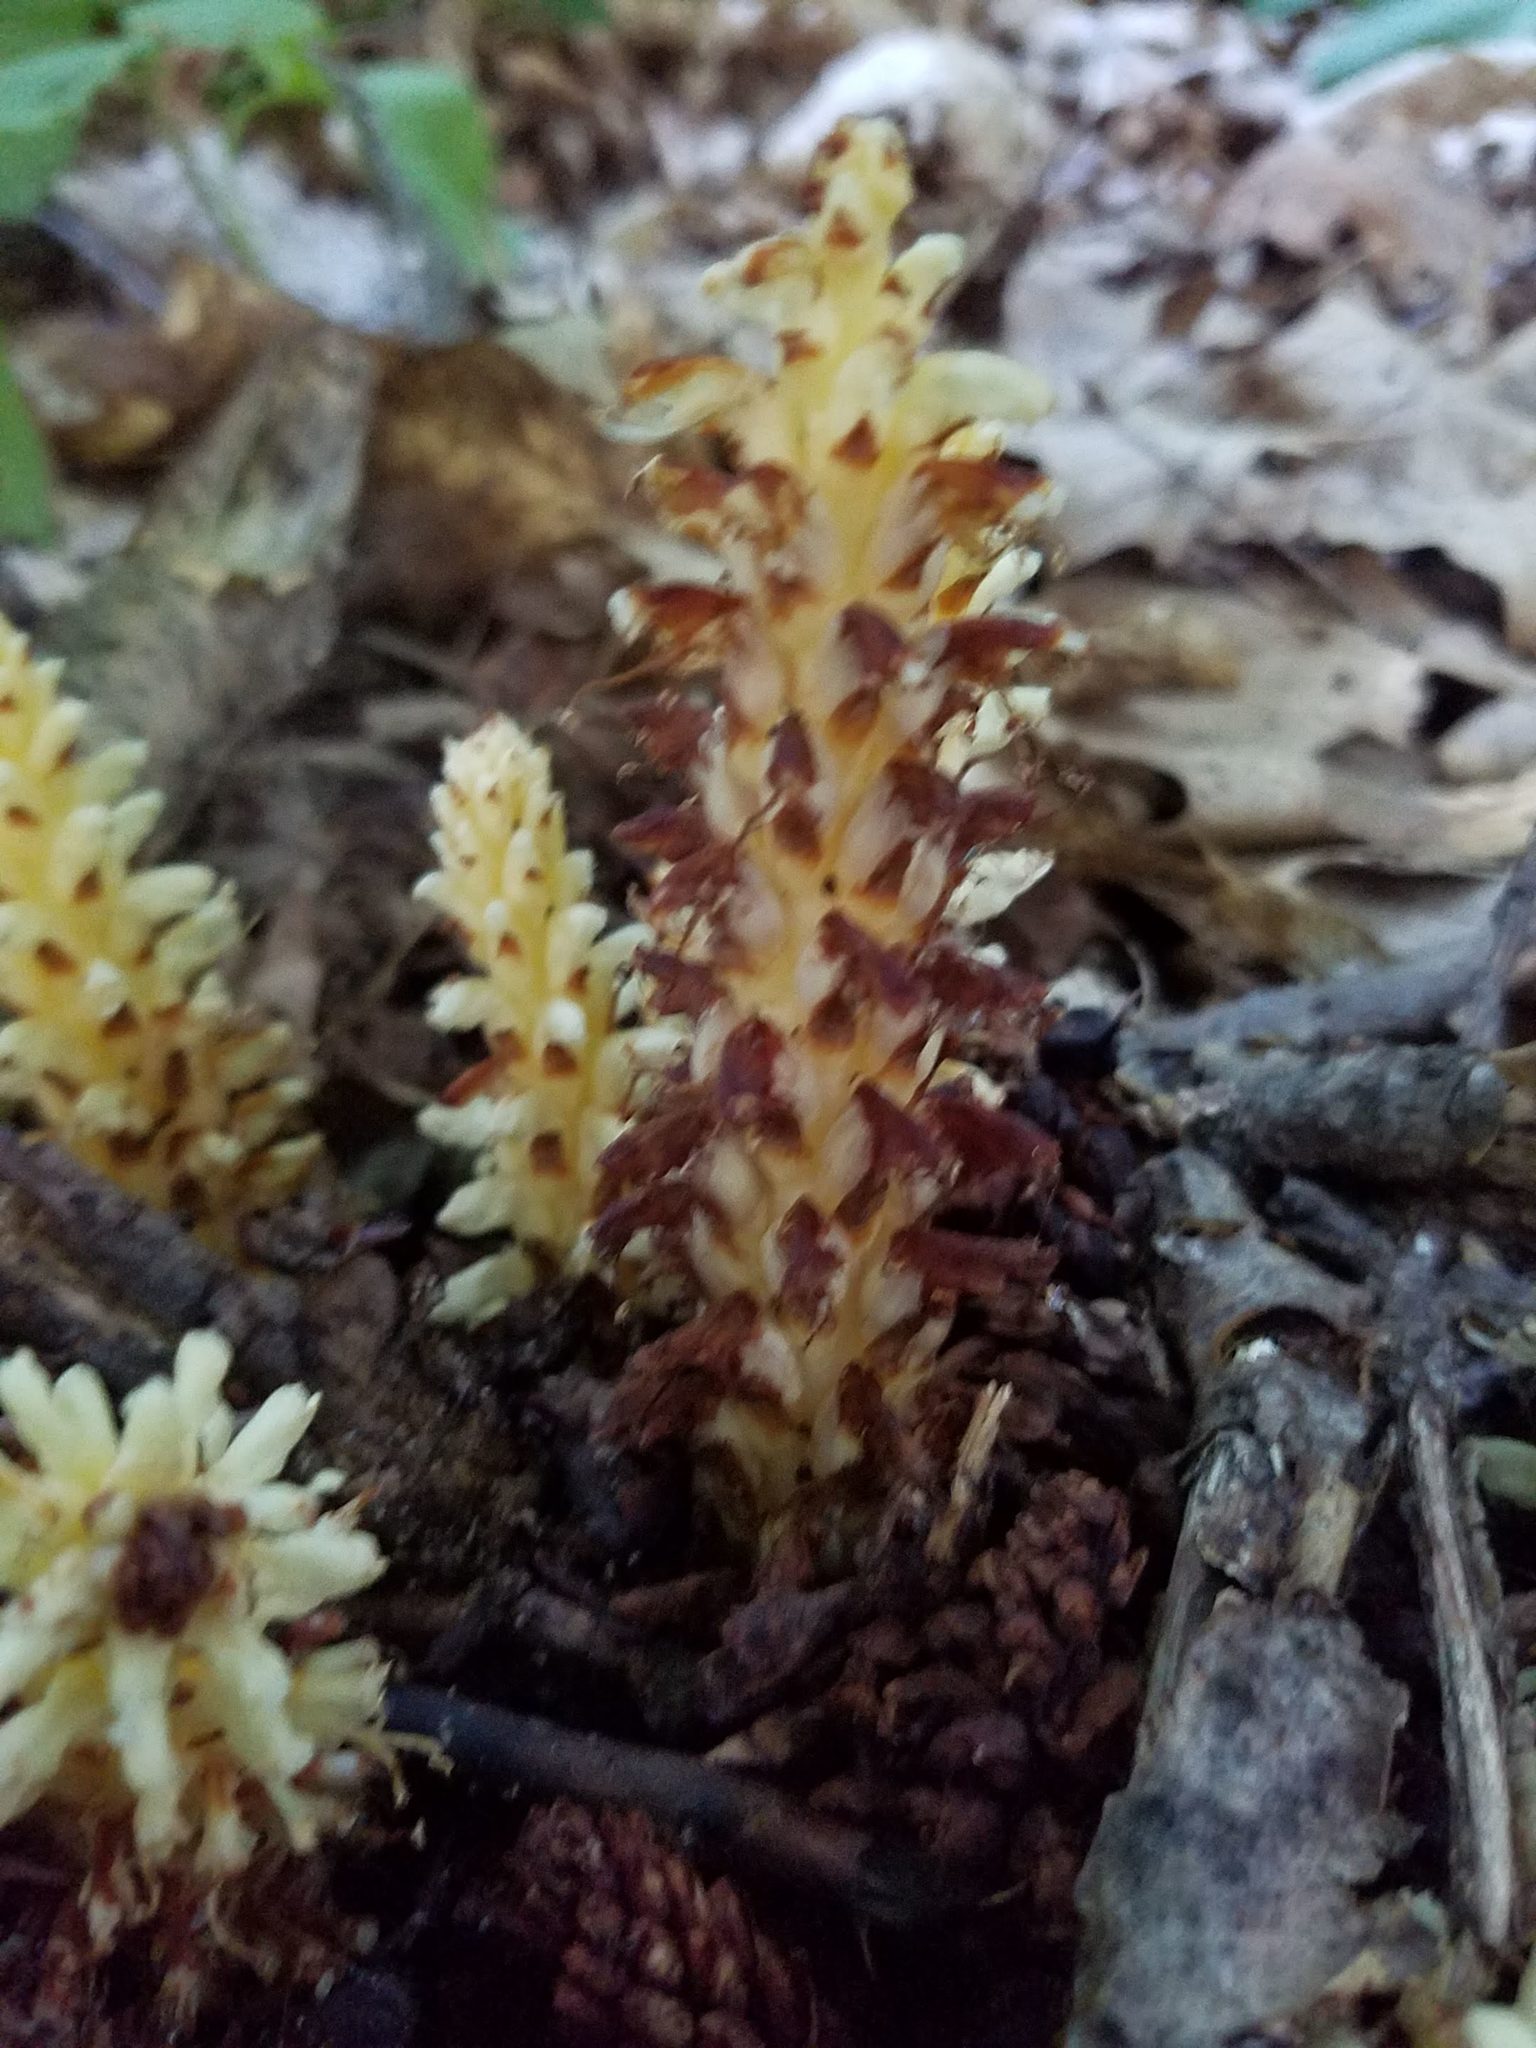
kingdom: Plantae
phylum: Tracheophyta
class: Magnoliopsida
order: Lamiales
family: Orobanchaceae
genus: Conopholis
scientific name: Conopholis americana
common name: American cancer-root
